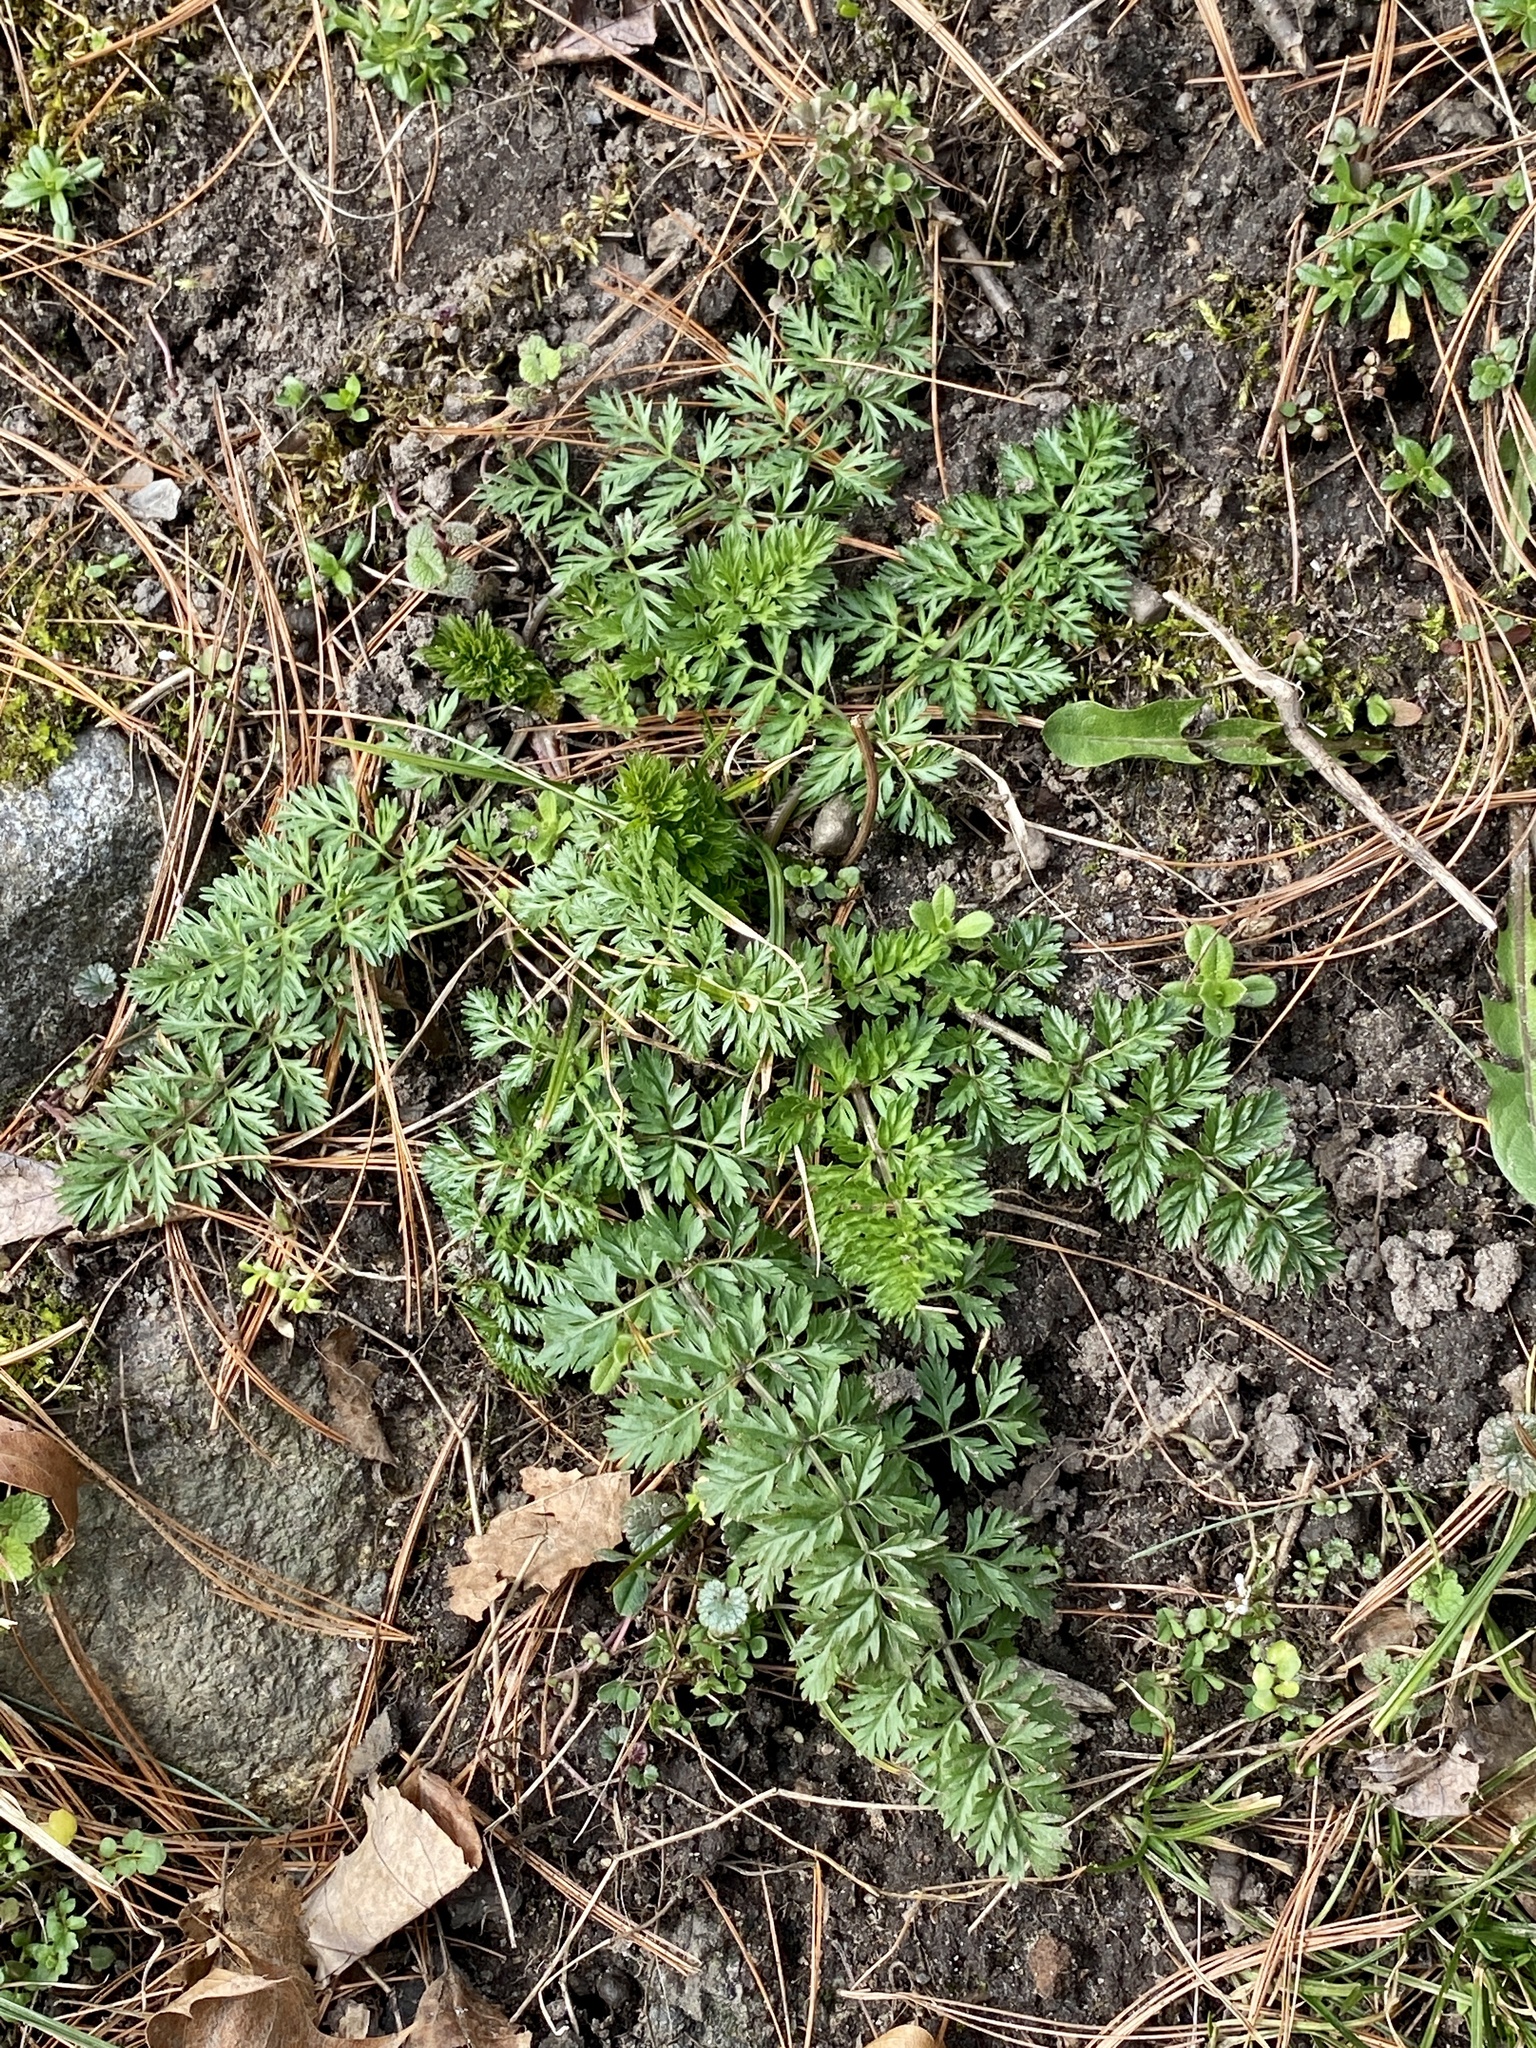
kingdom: Plantae
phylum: Tracheophyta
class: Magnoliopsida
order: Apiales
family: Apiaceae
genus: Daucus
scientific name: Daucus carota
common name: Wild carrot
